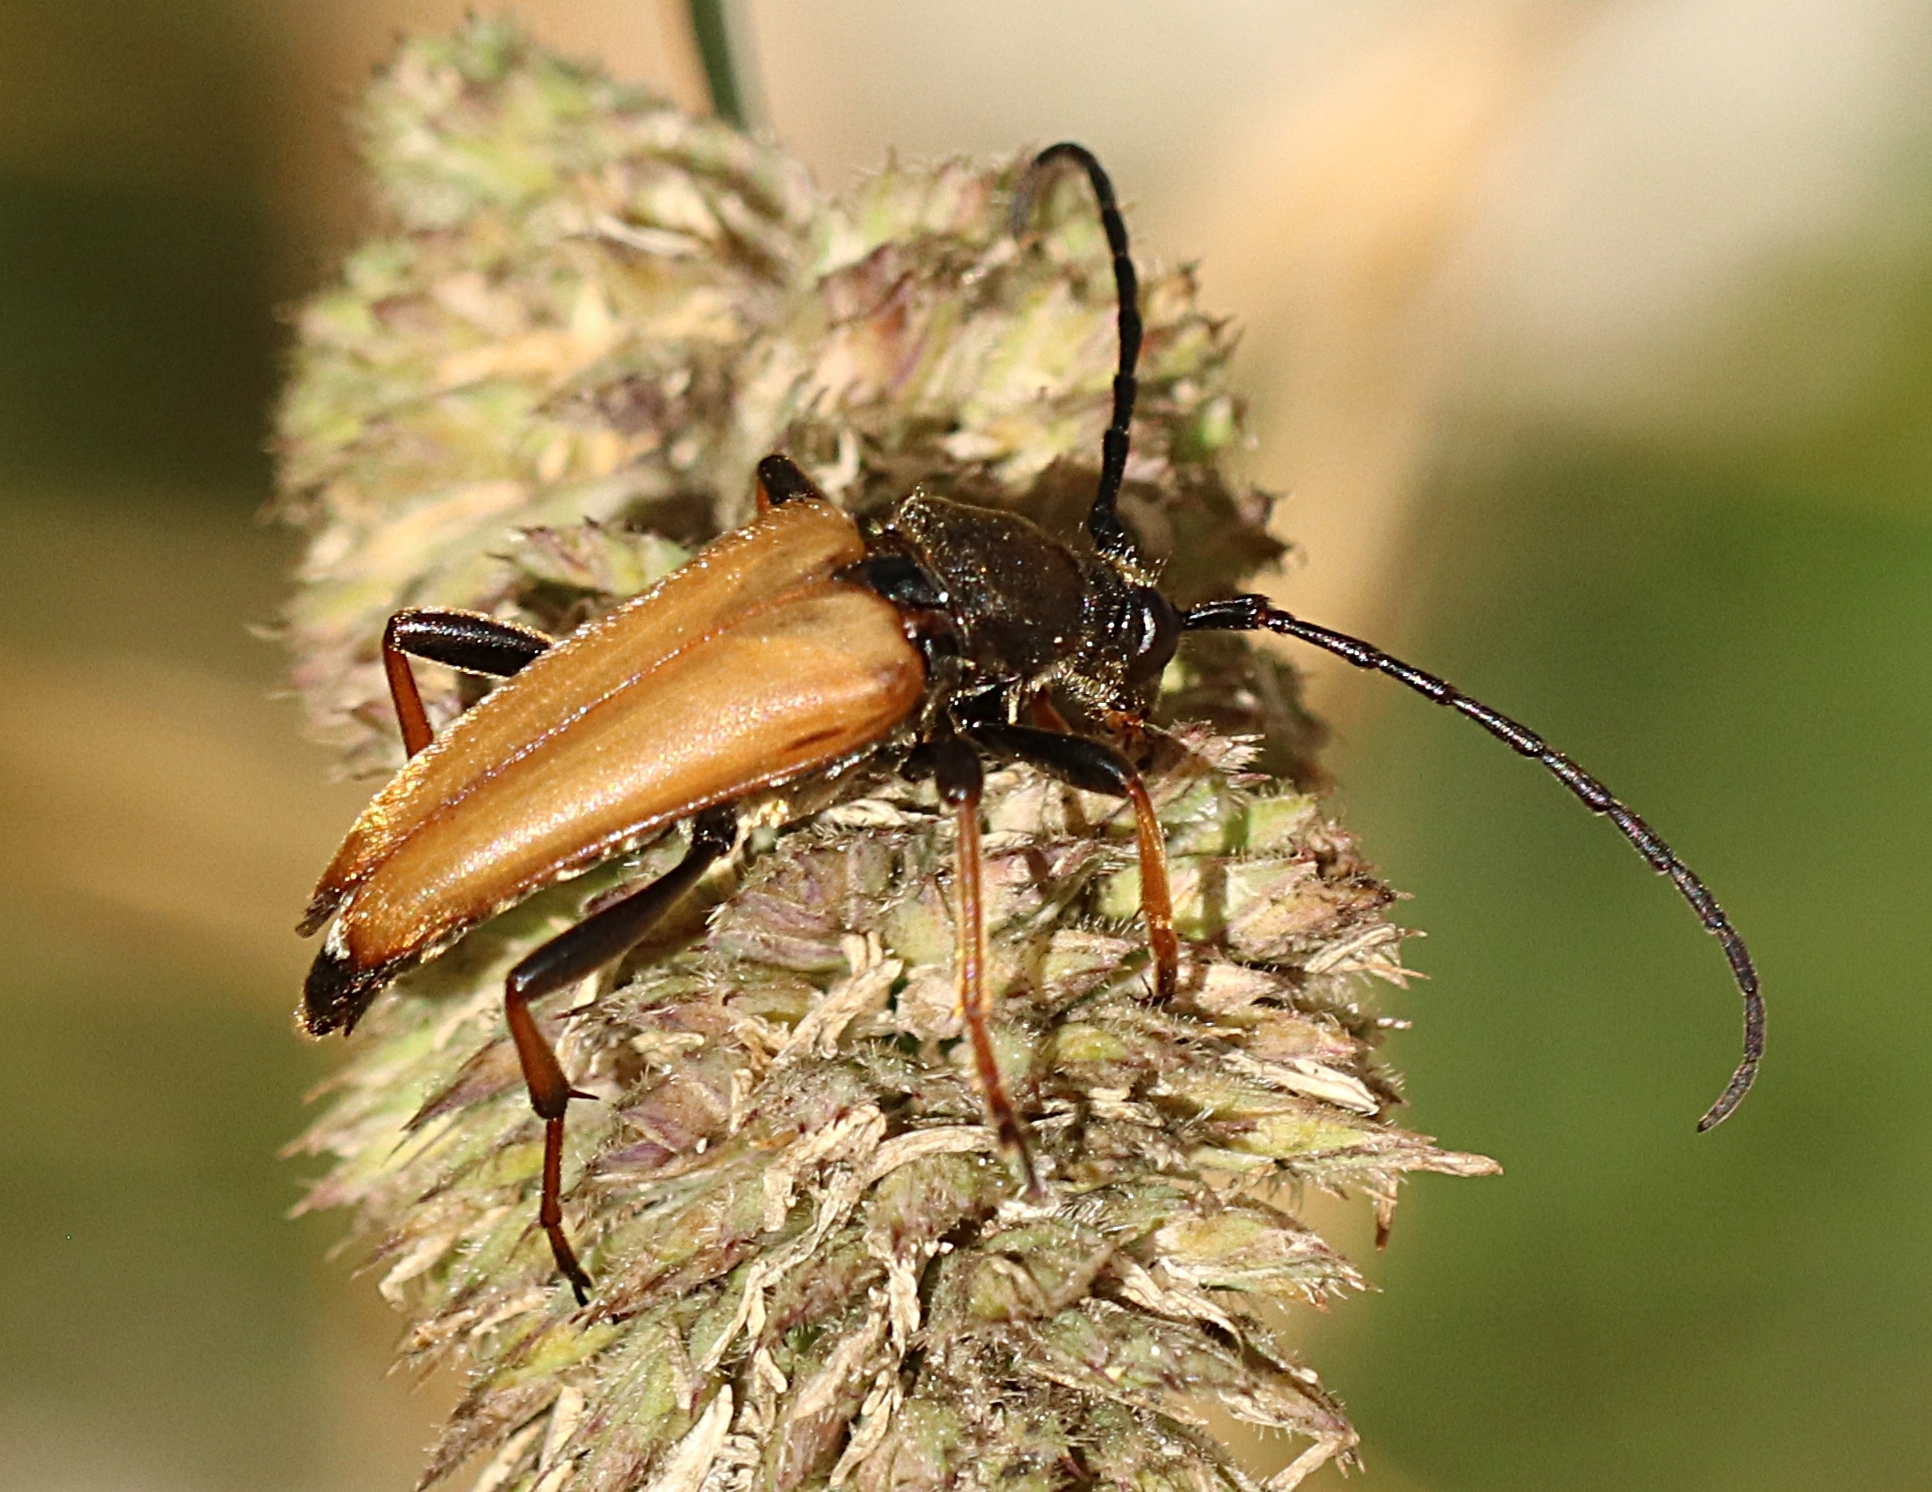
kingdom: Animalia
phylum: Arthropoda
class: Insecta
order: Coleoptera
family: Cerambycidae
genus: Stictoleptura
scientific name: Stictoleptura rubra
